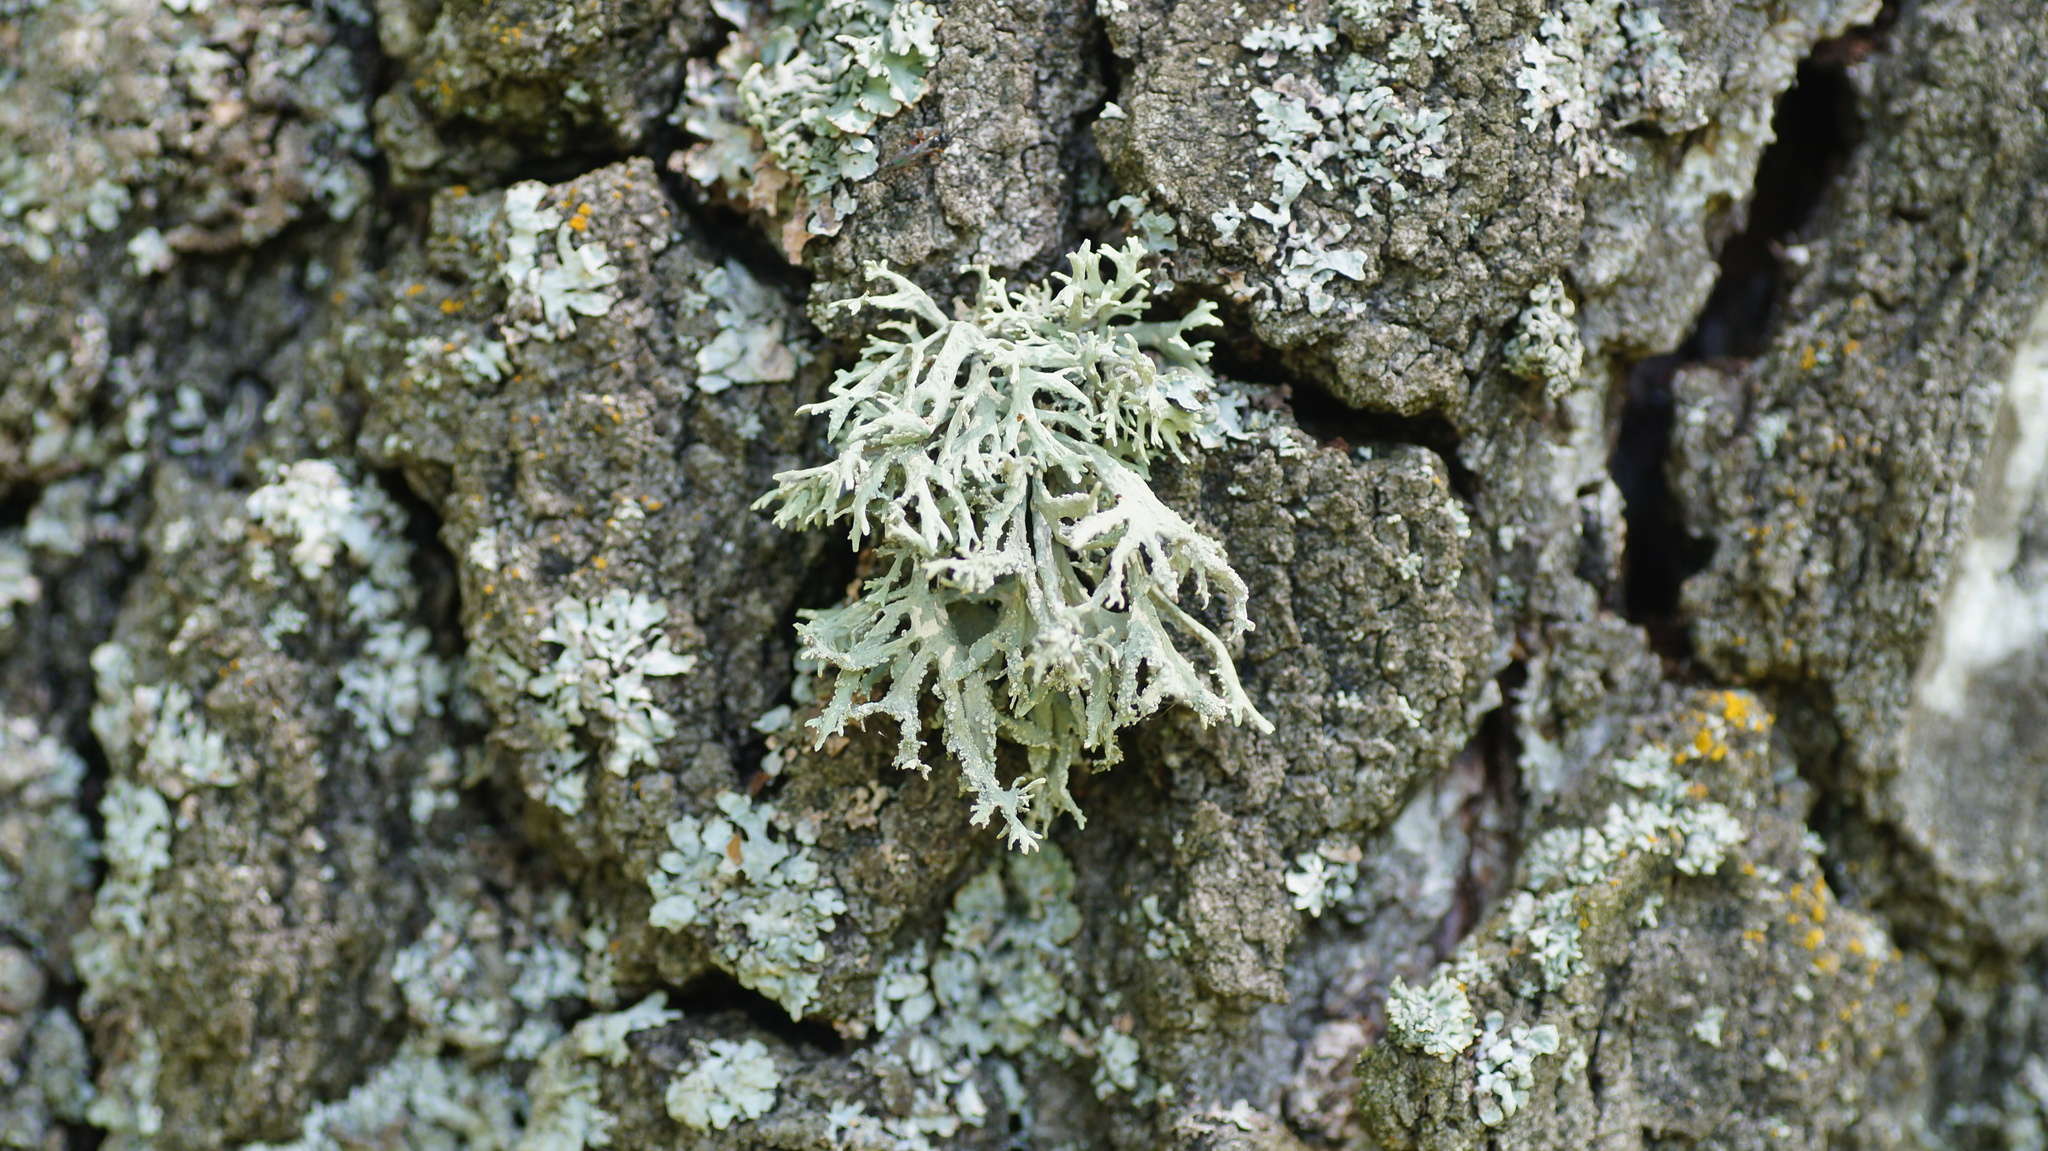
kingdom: Fungi
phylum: Ascomycota
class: Lecanoromycetes
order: Lecanorales
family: Parmeliaceae
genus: Evernia
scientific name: Evernia prunastri
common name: Oak moss
